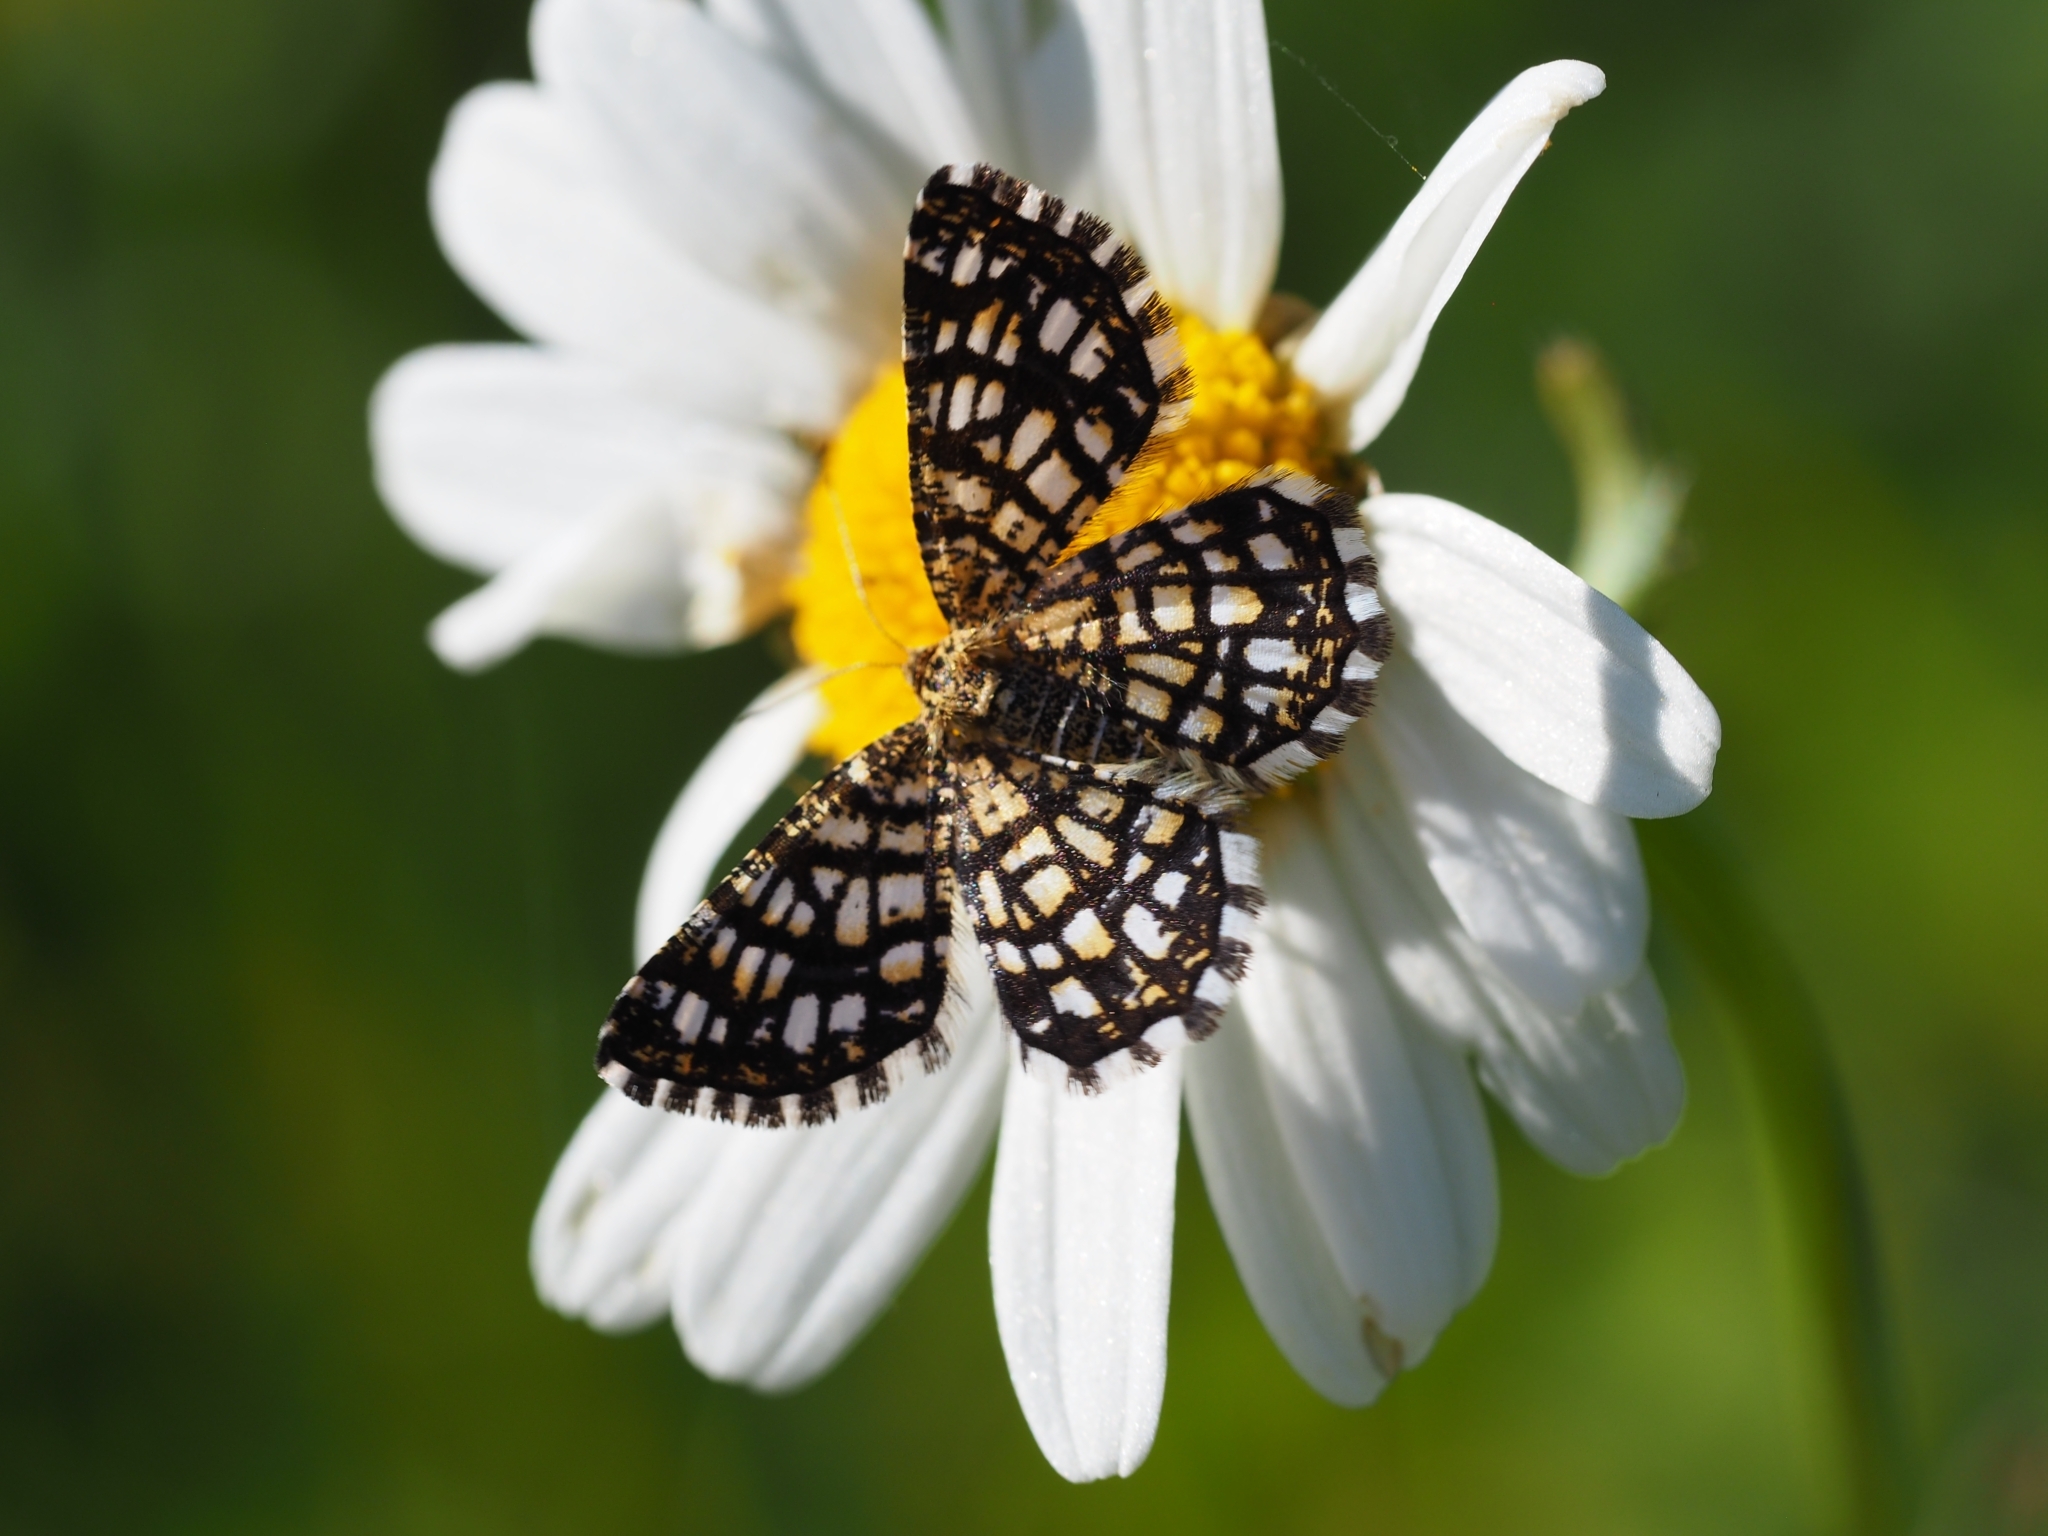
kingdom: Animalia
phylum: Arthropoda
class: Insecta
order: Lepidoptera
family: Geometridae
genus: Chiasmia
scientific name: Chiasmia clathrata
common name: Latticed heath
